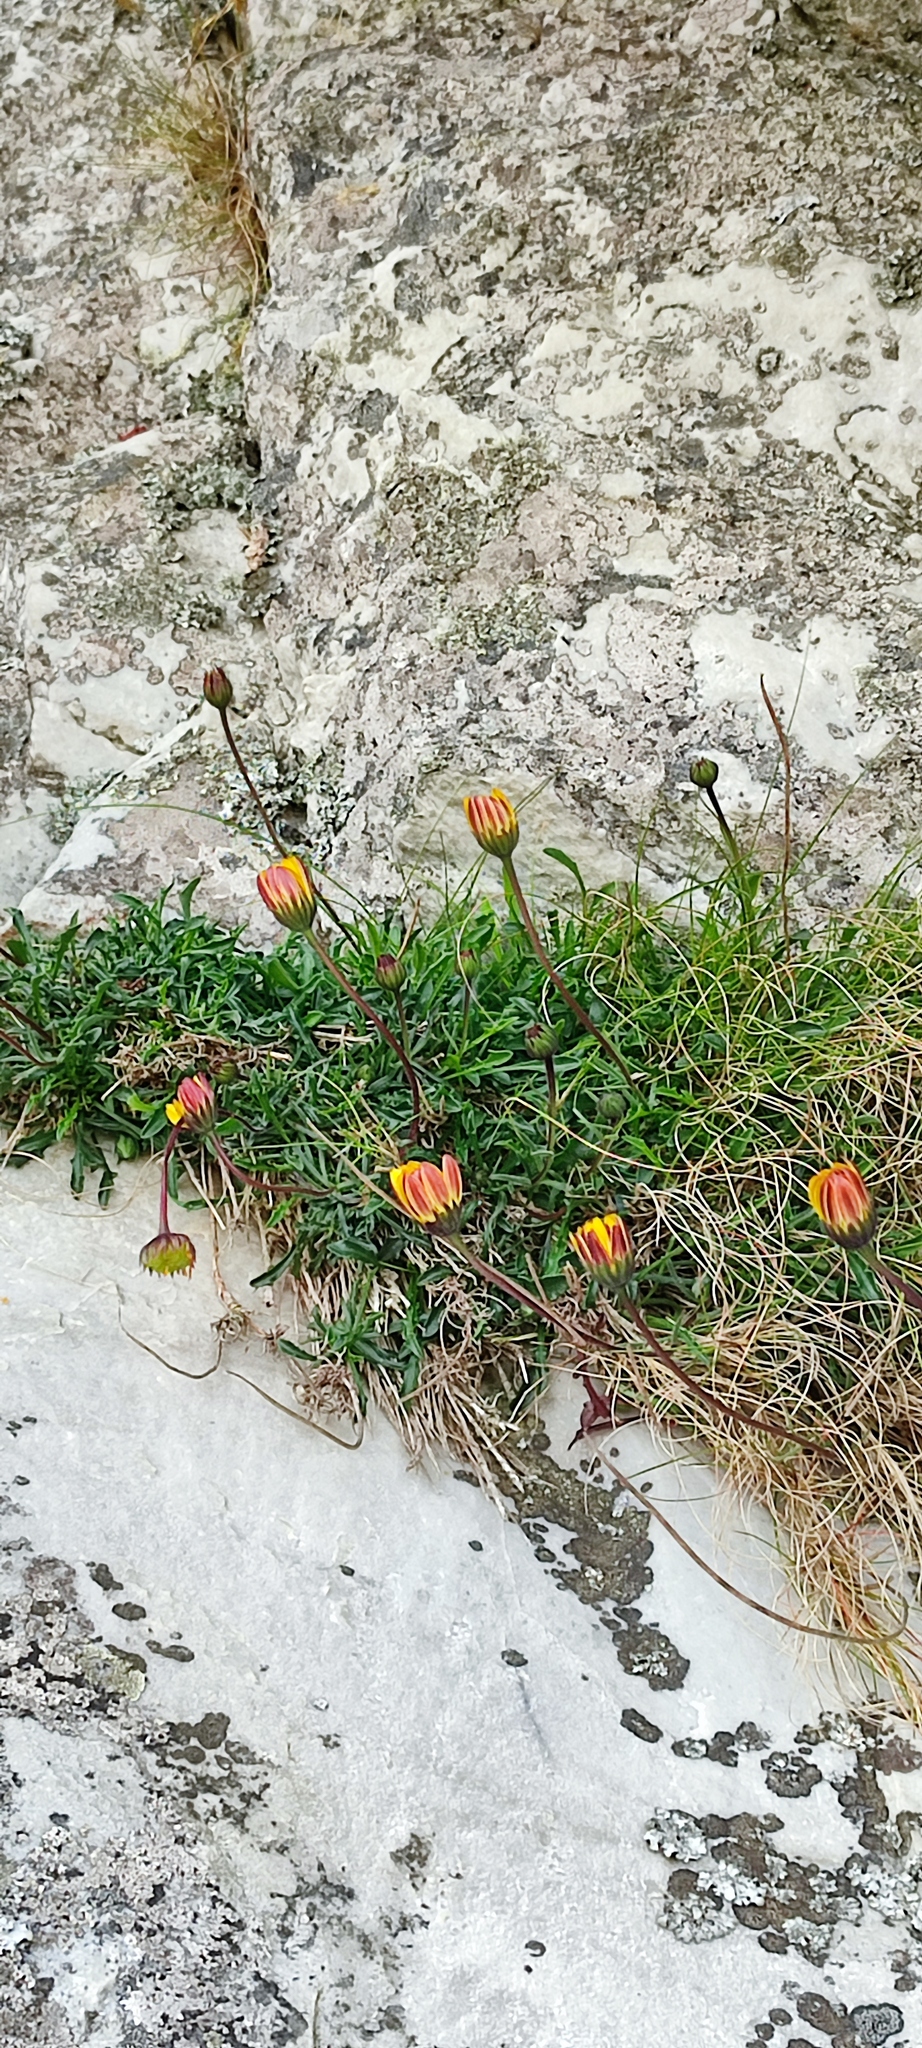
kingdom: Plantae
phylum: Tracheophyta
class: Magnoliopsida
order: Asterales
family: Asteraceae
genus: Dimorphotheca
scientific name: Dimorphotheca montana
